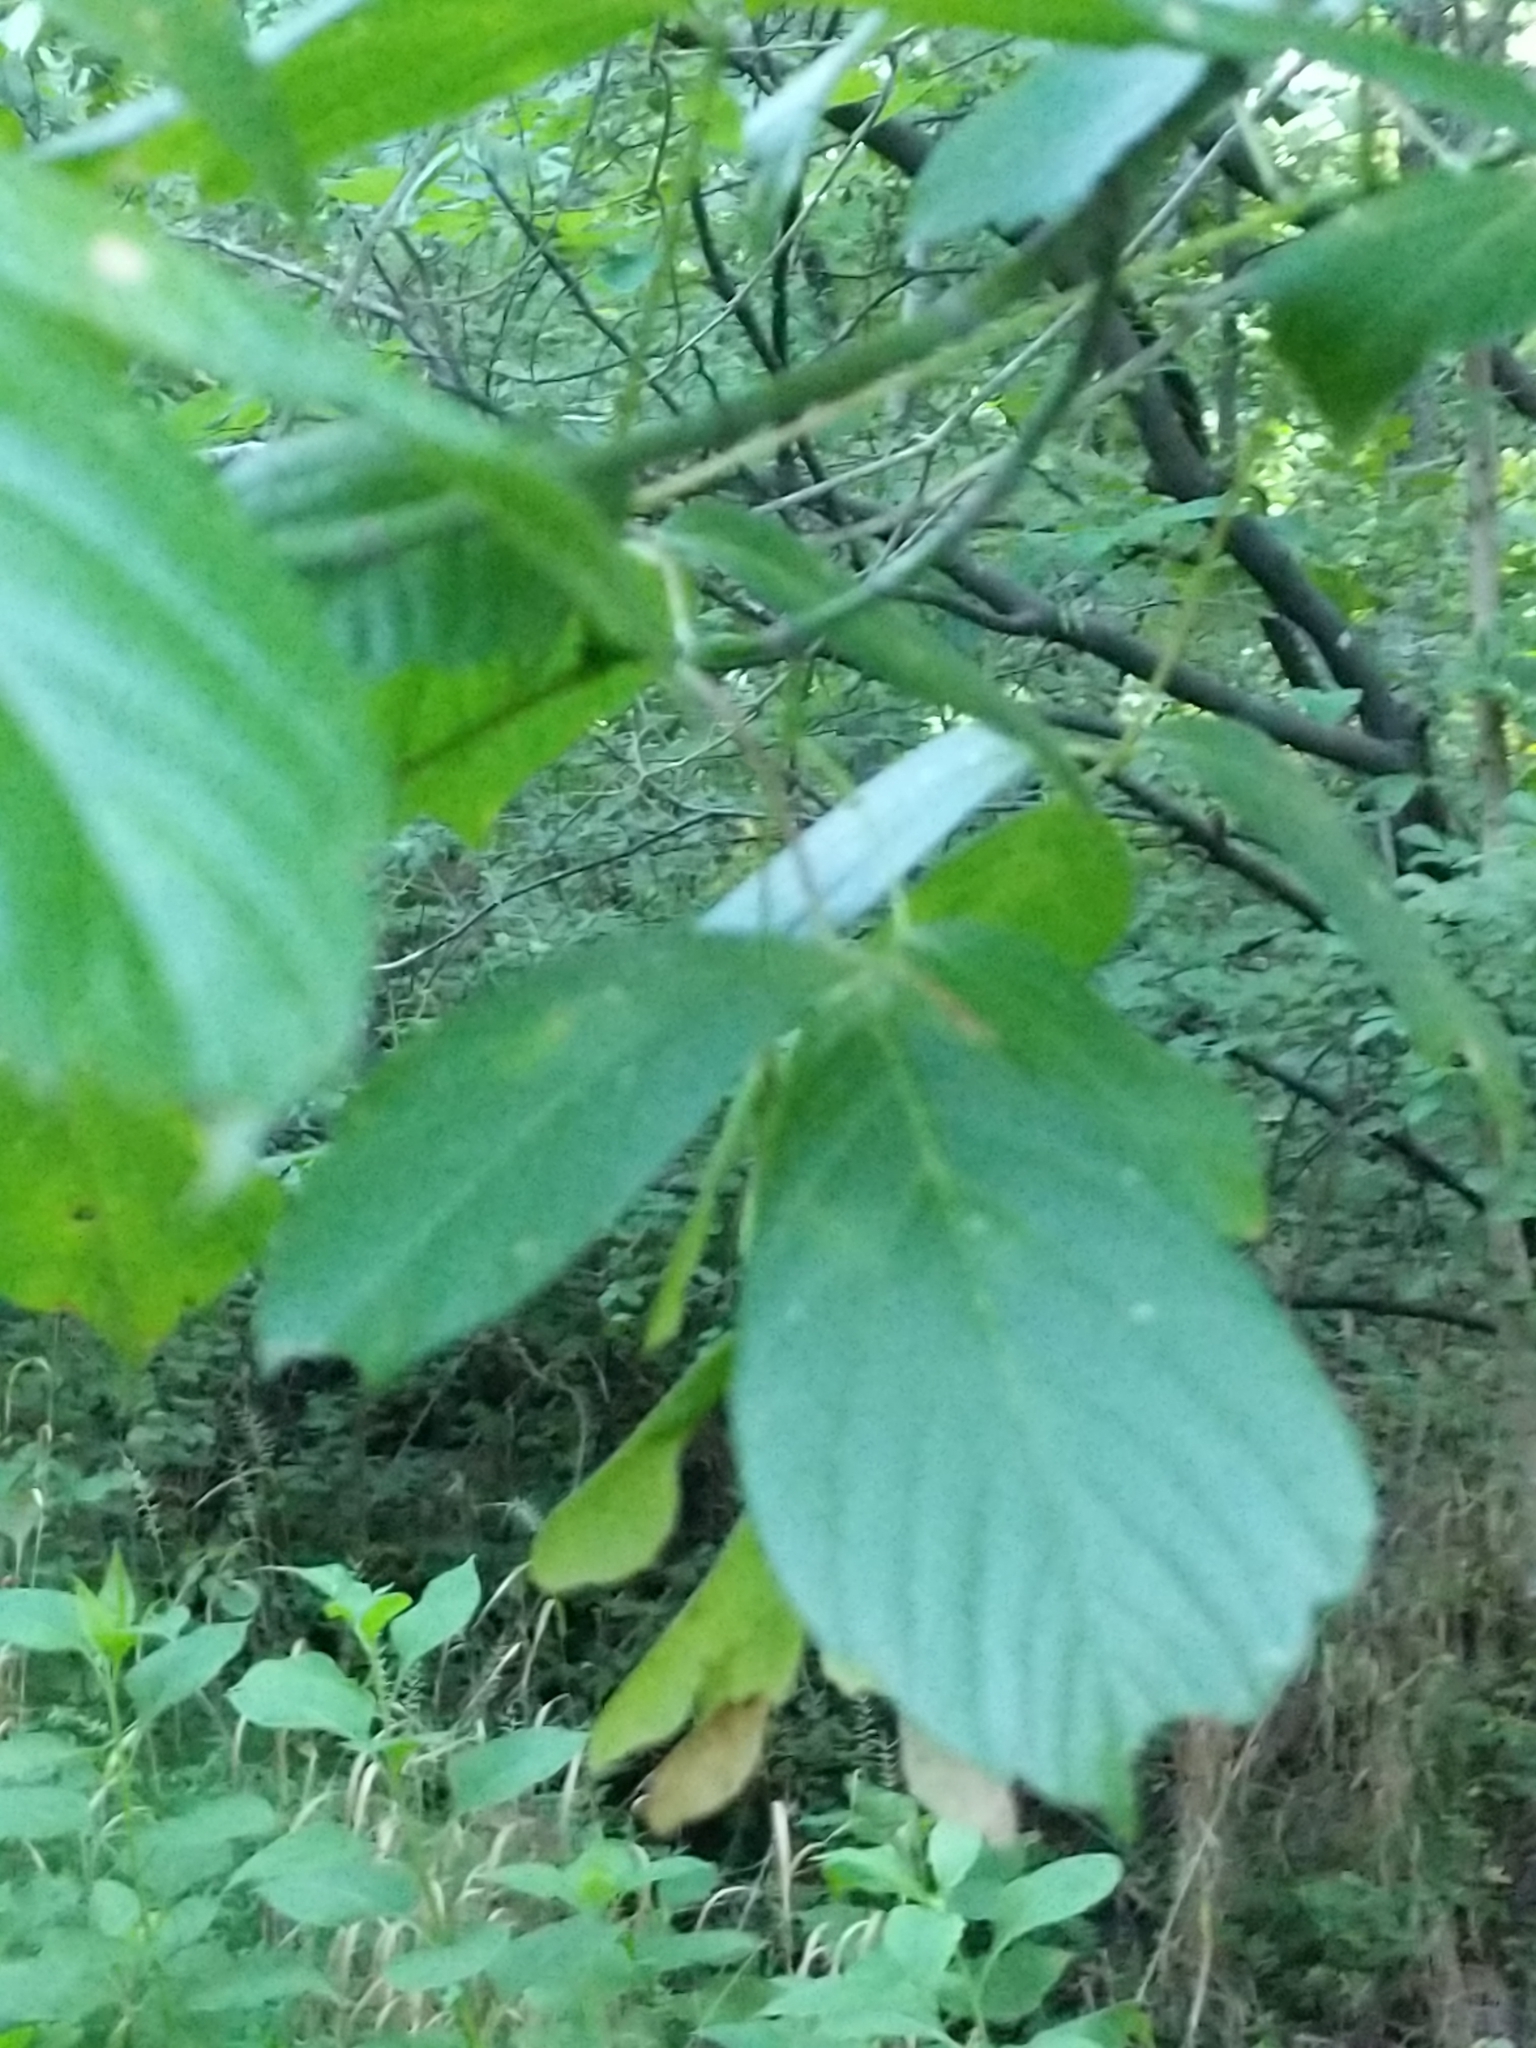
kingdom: Plantae
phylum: Tracheophyta
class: Magnoliopsida
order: Sapindales
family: Sapindaceae
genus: Acer
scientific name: Acer negundo
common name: Ashleaf maple
